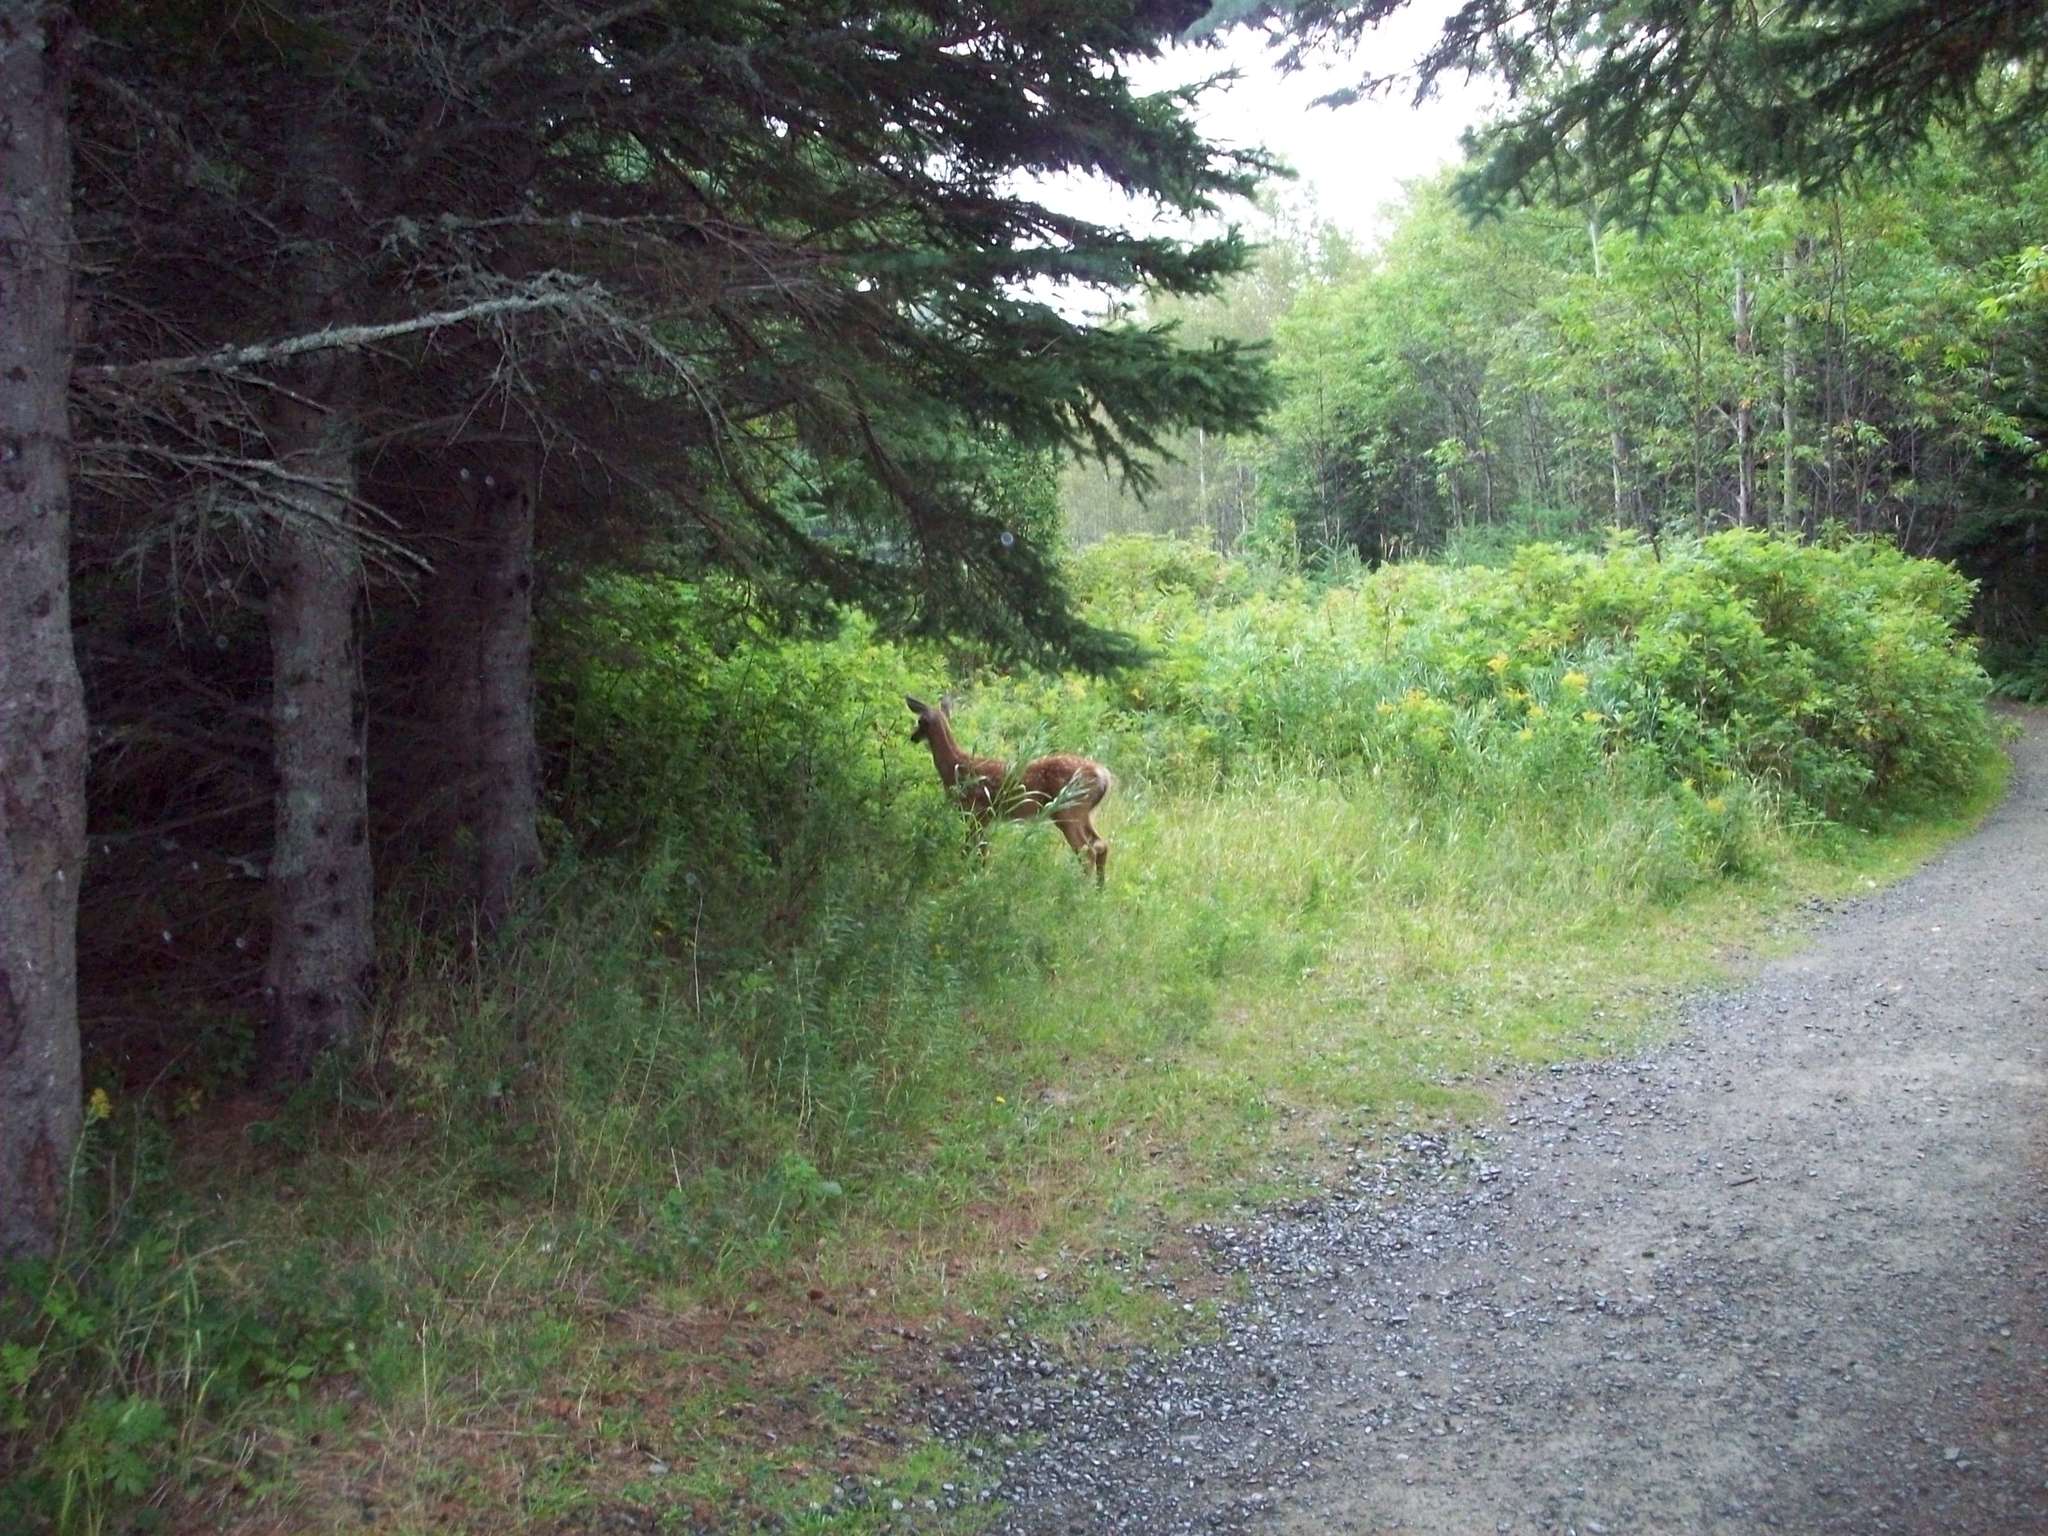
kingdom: Animalia
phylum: Chordata
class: Mammalia
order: Artiodactyla
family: Cervidae
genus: Odocoileus
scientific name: Odocoileus virginianus
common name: White-tailed deer
